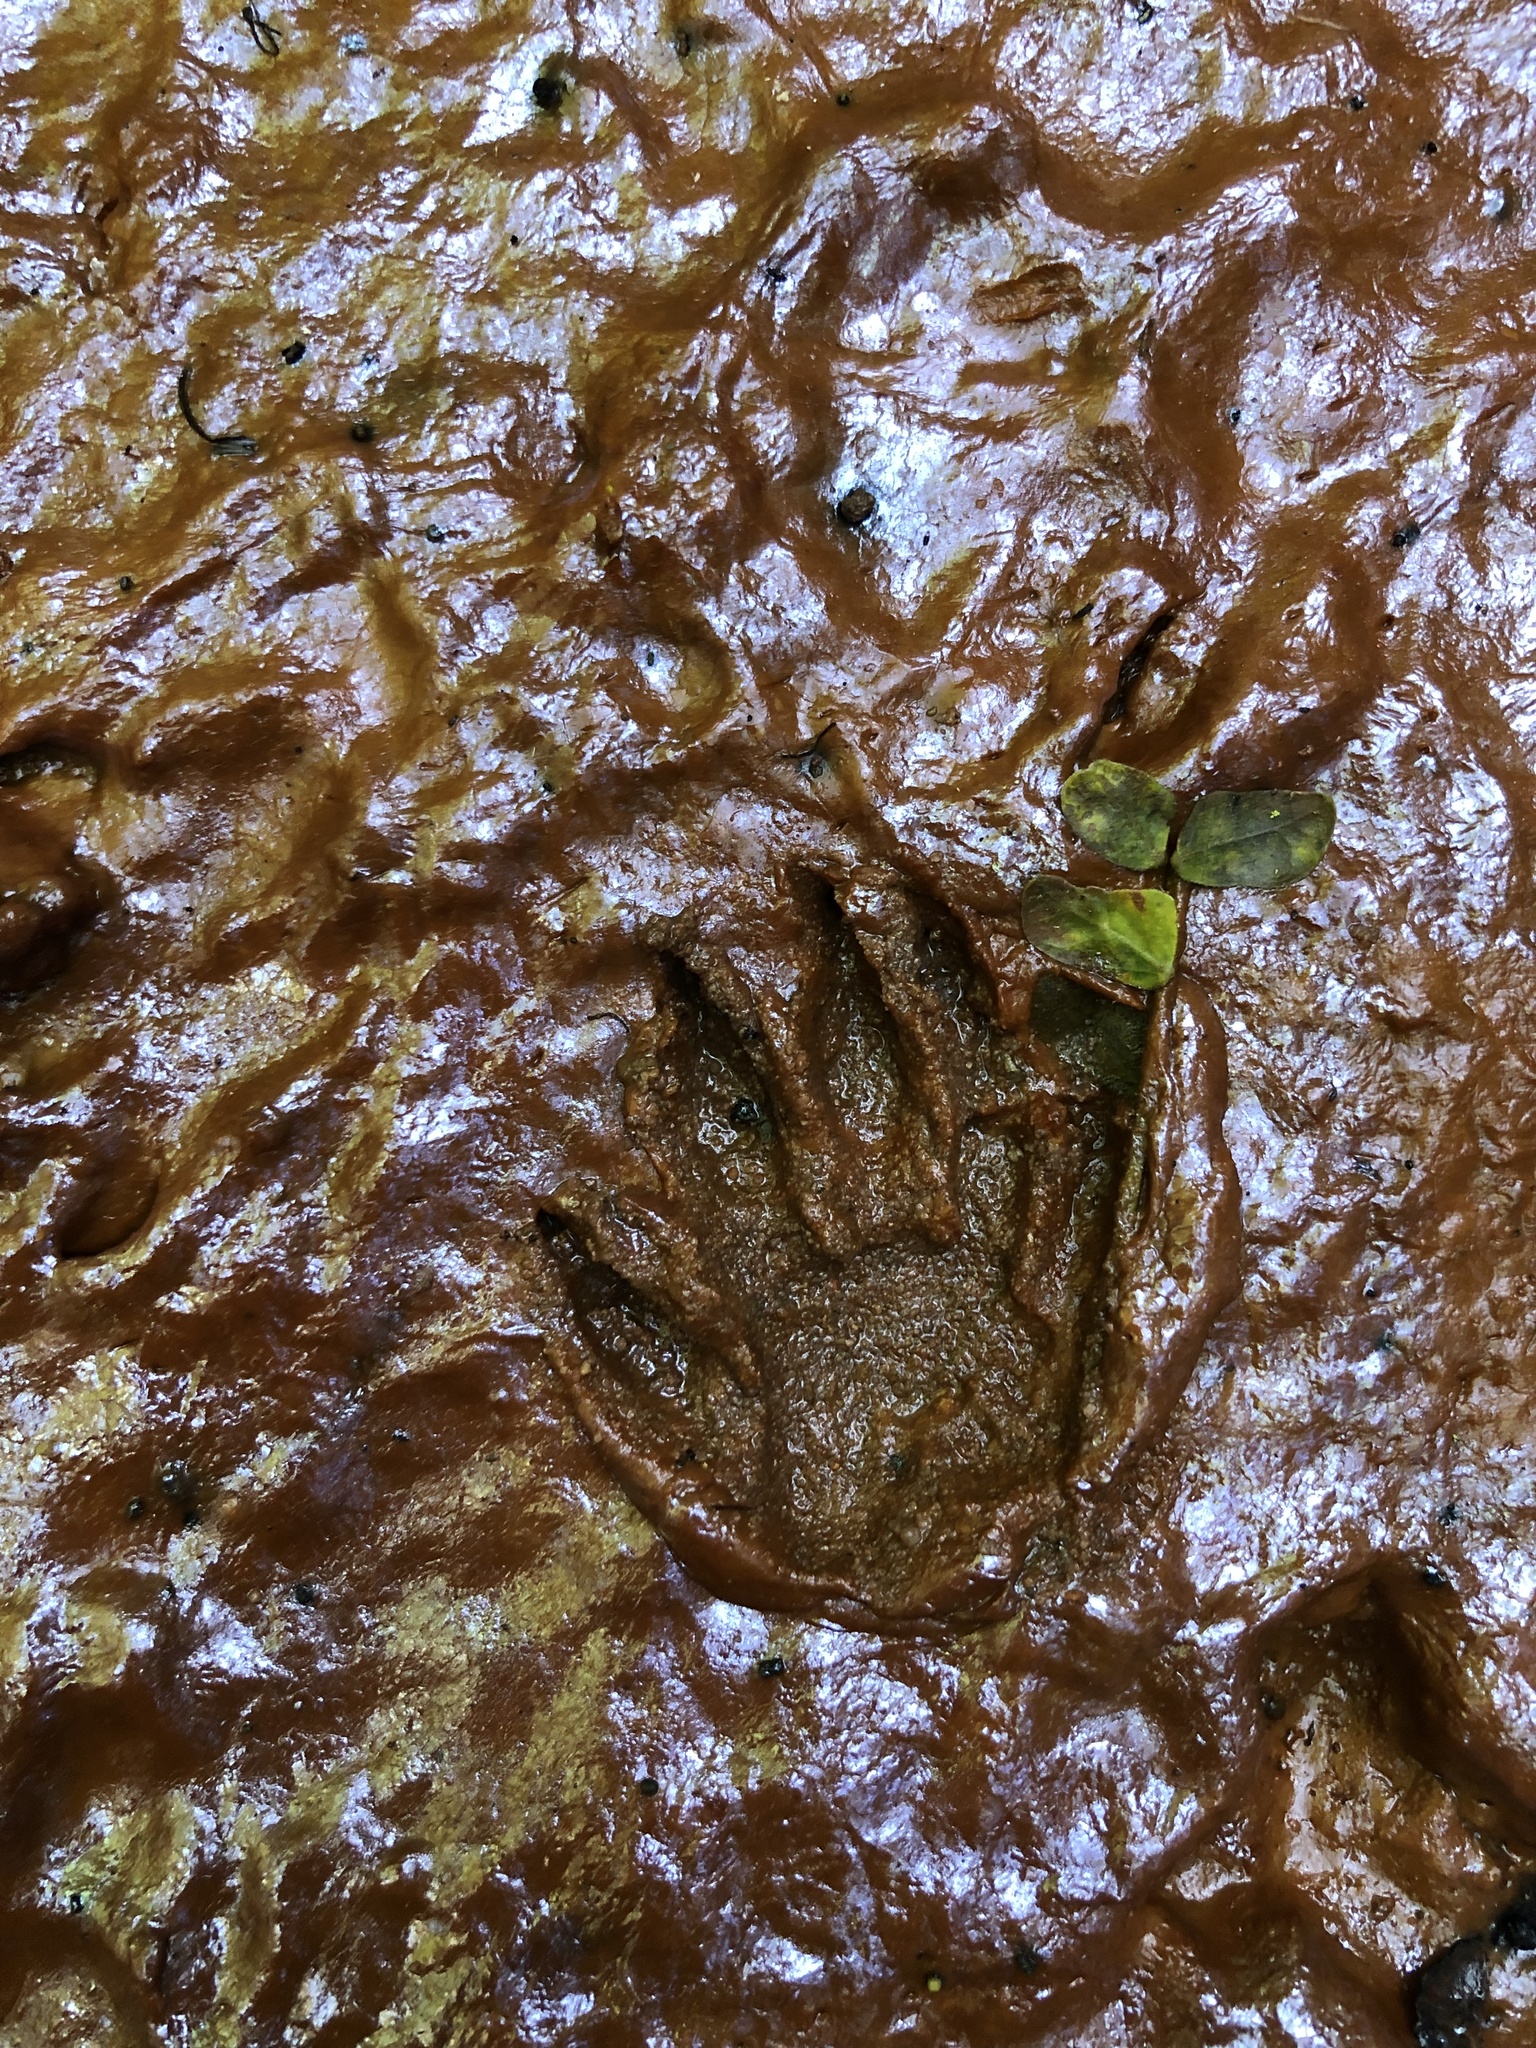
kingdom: Animalia
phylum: Chordata
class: Mammalia
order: Carnivora
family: Herpestidae
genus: Atilax
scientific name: Atilax paludinosus
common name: Marsh mongoose
